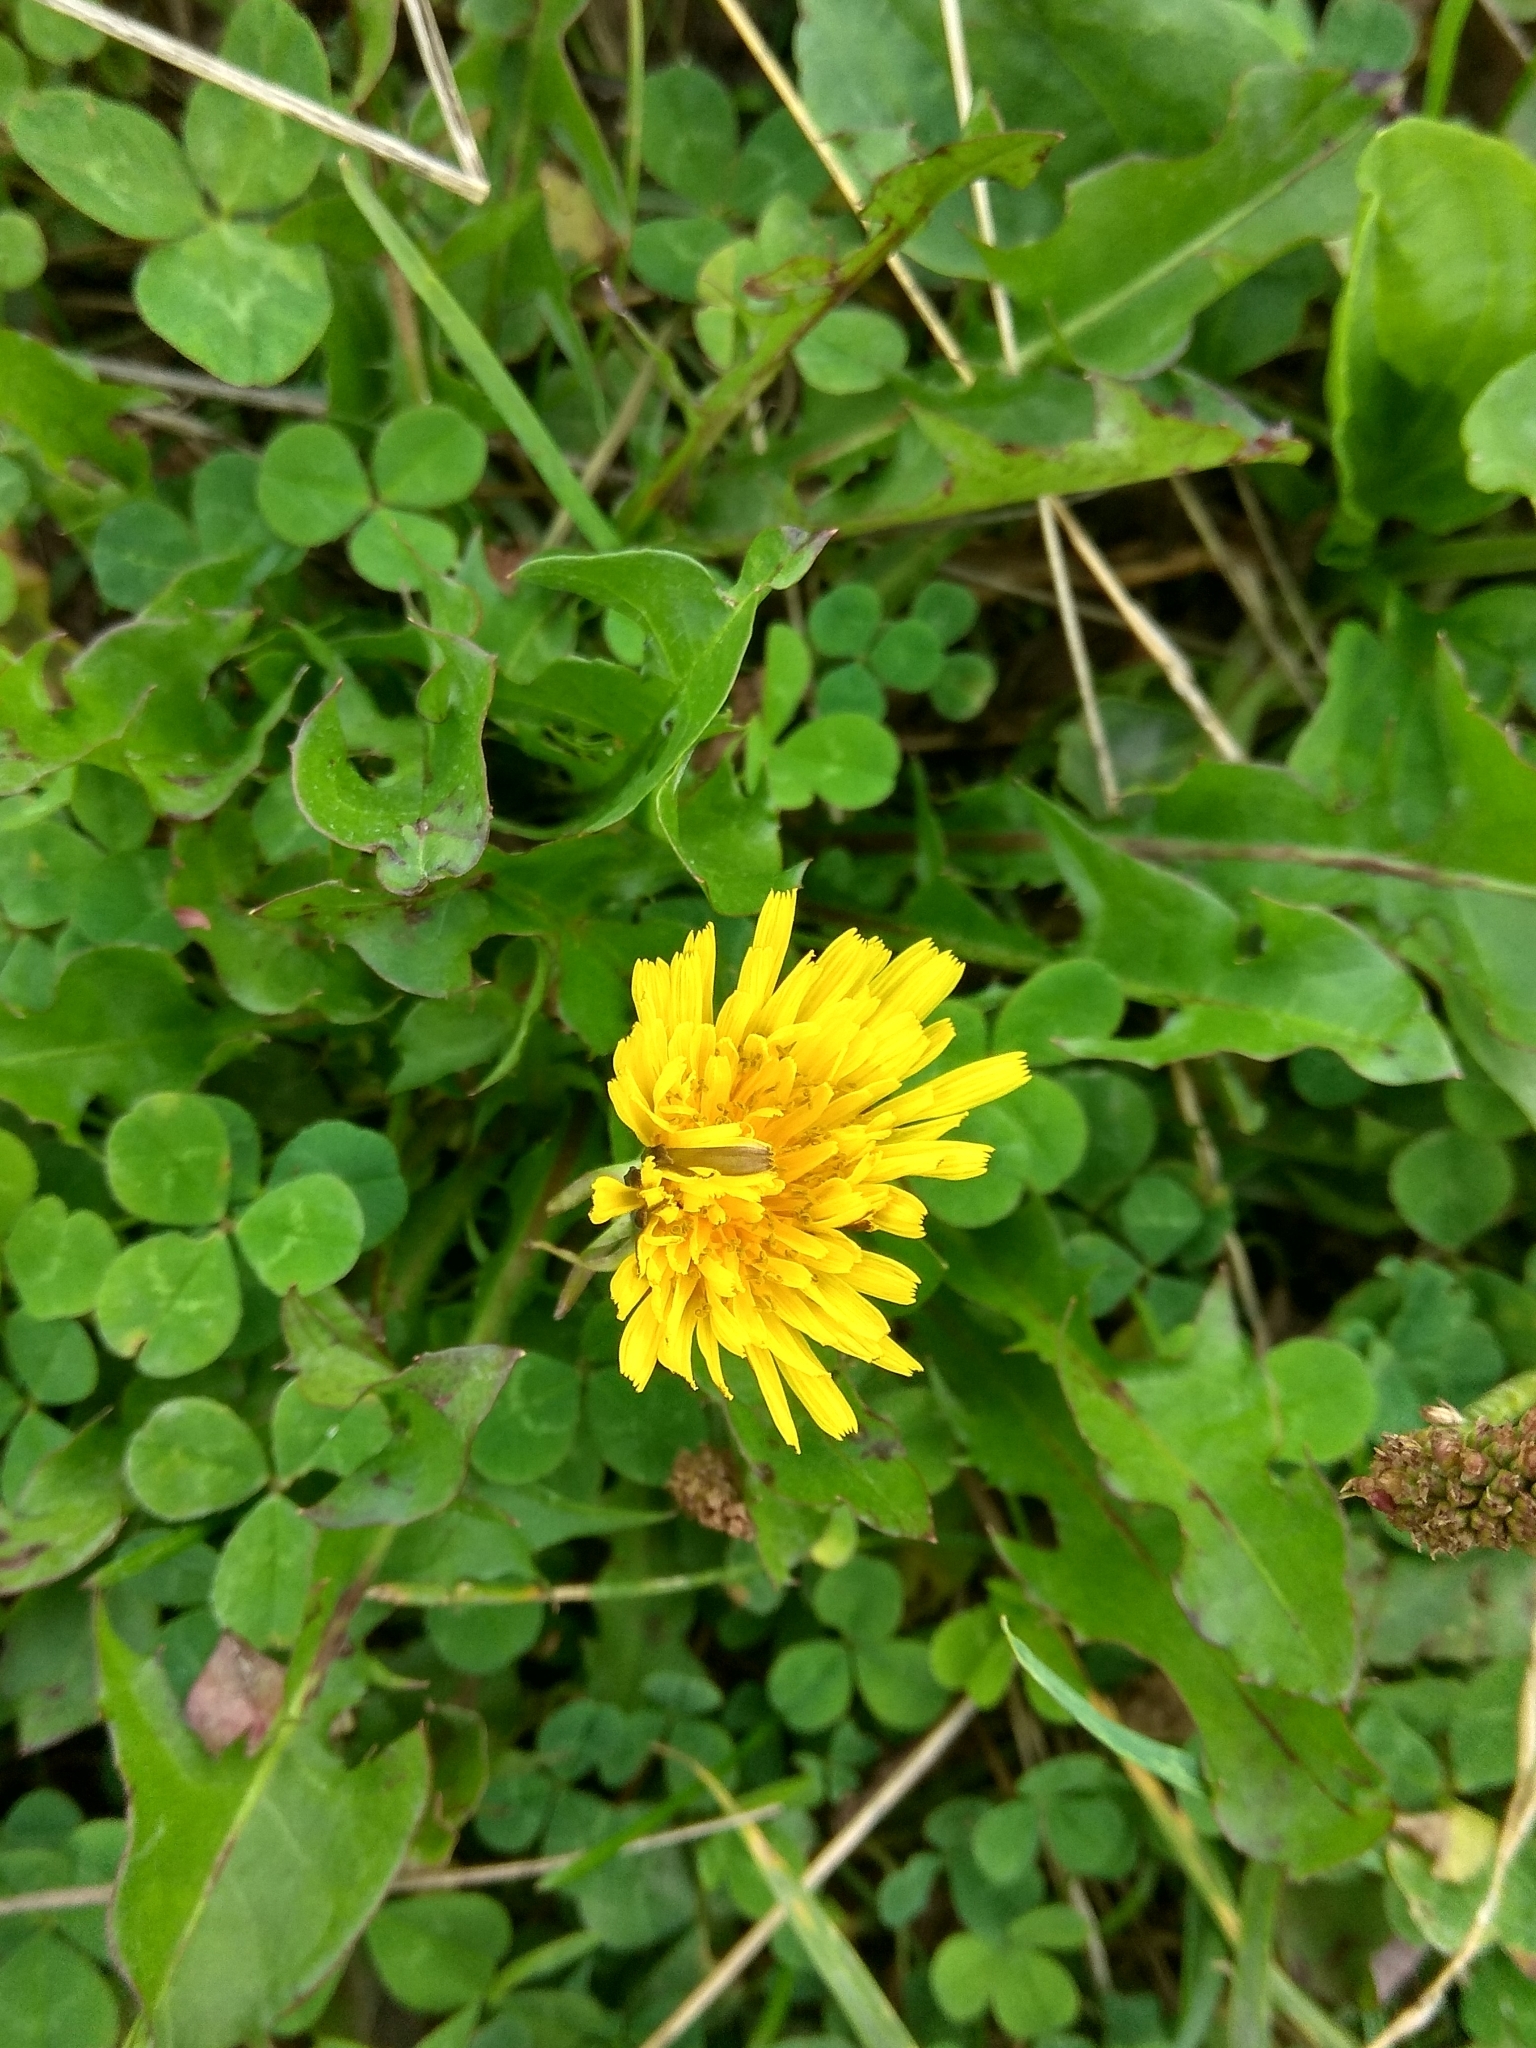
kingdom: Plantae
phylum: Tracheophyta
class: Magnoliopsida
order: Asterales
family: Asteraceae
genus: Taraxacum
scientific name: Taraxacum officinale
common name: Common dandelion
